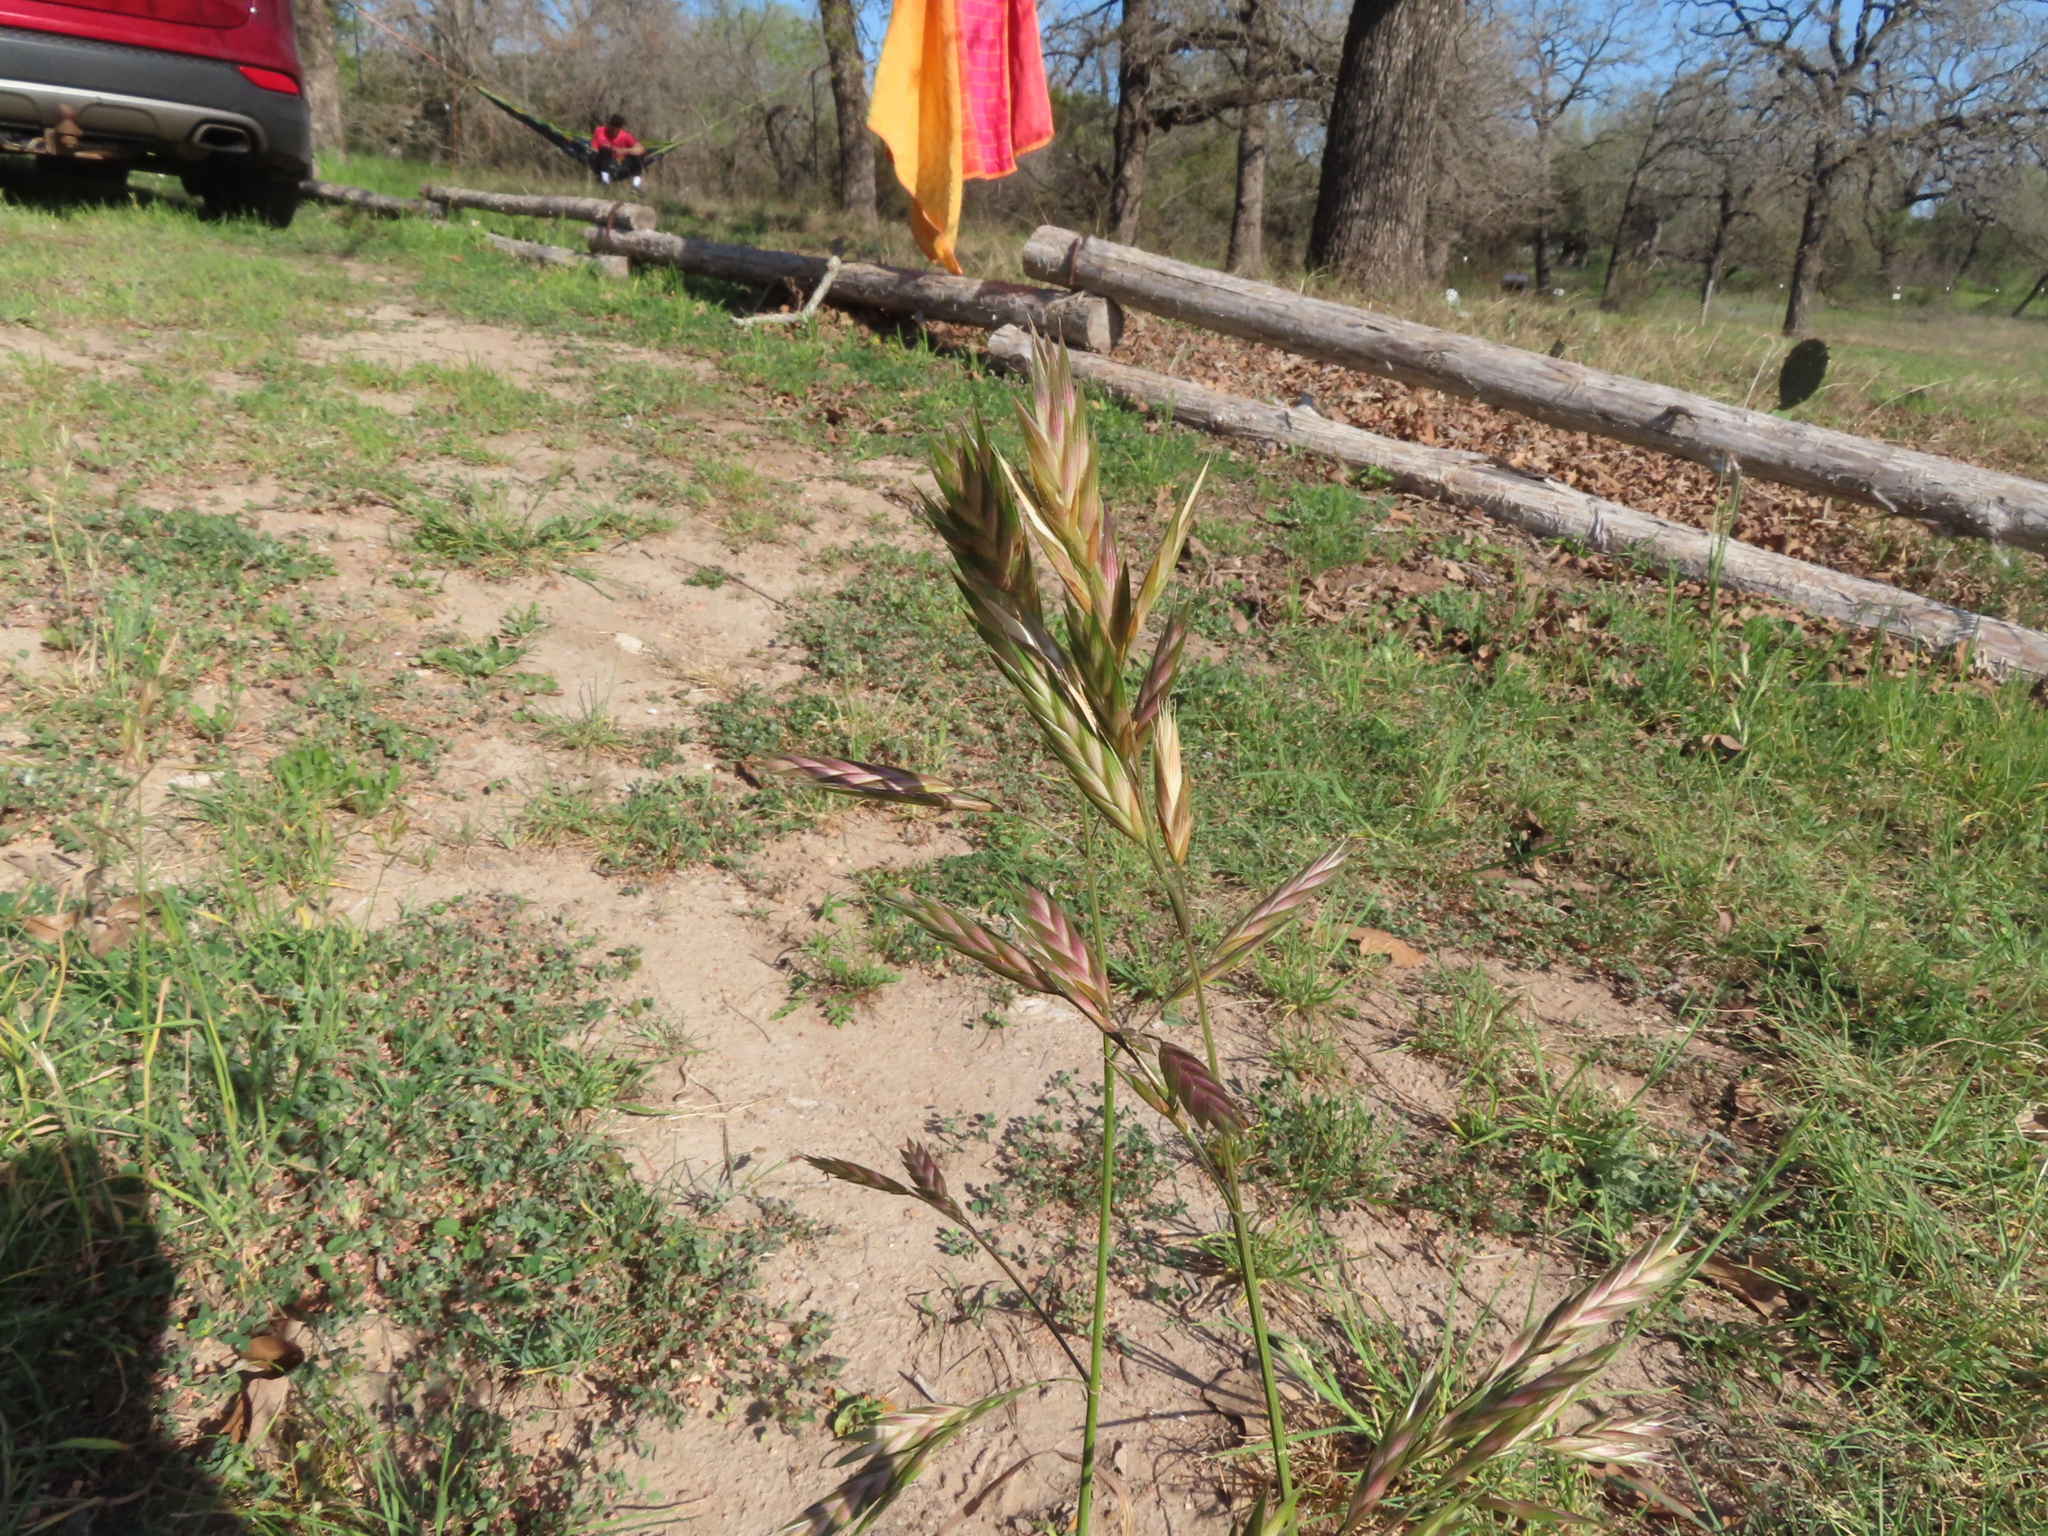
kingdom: Plantae
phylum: Tracheophyta
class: Liliopsida
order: Poales
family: Poaceae
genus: Bromus
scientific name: Bromus catharticus
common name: Rescuegrass
